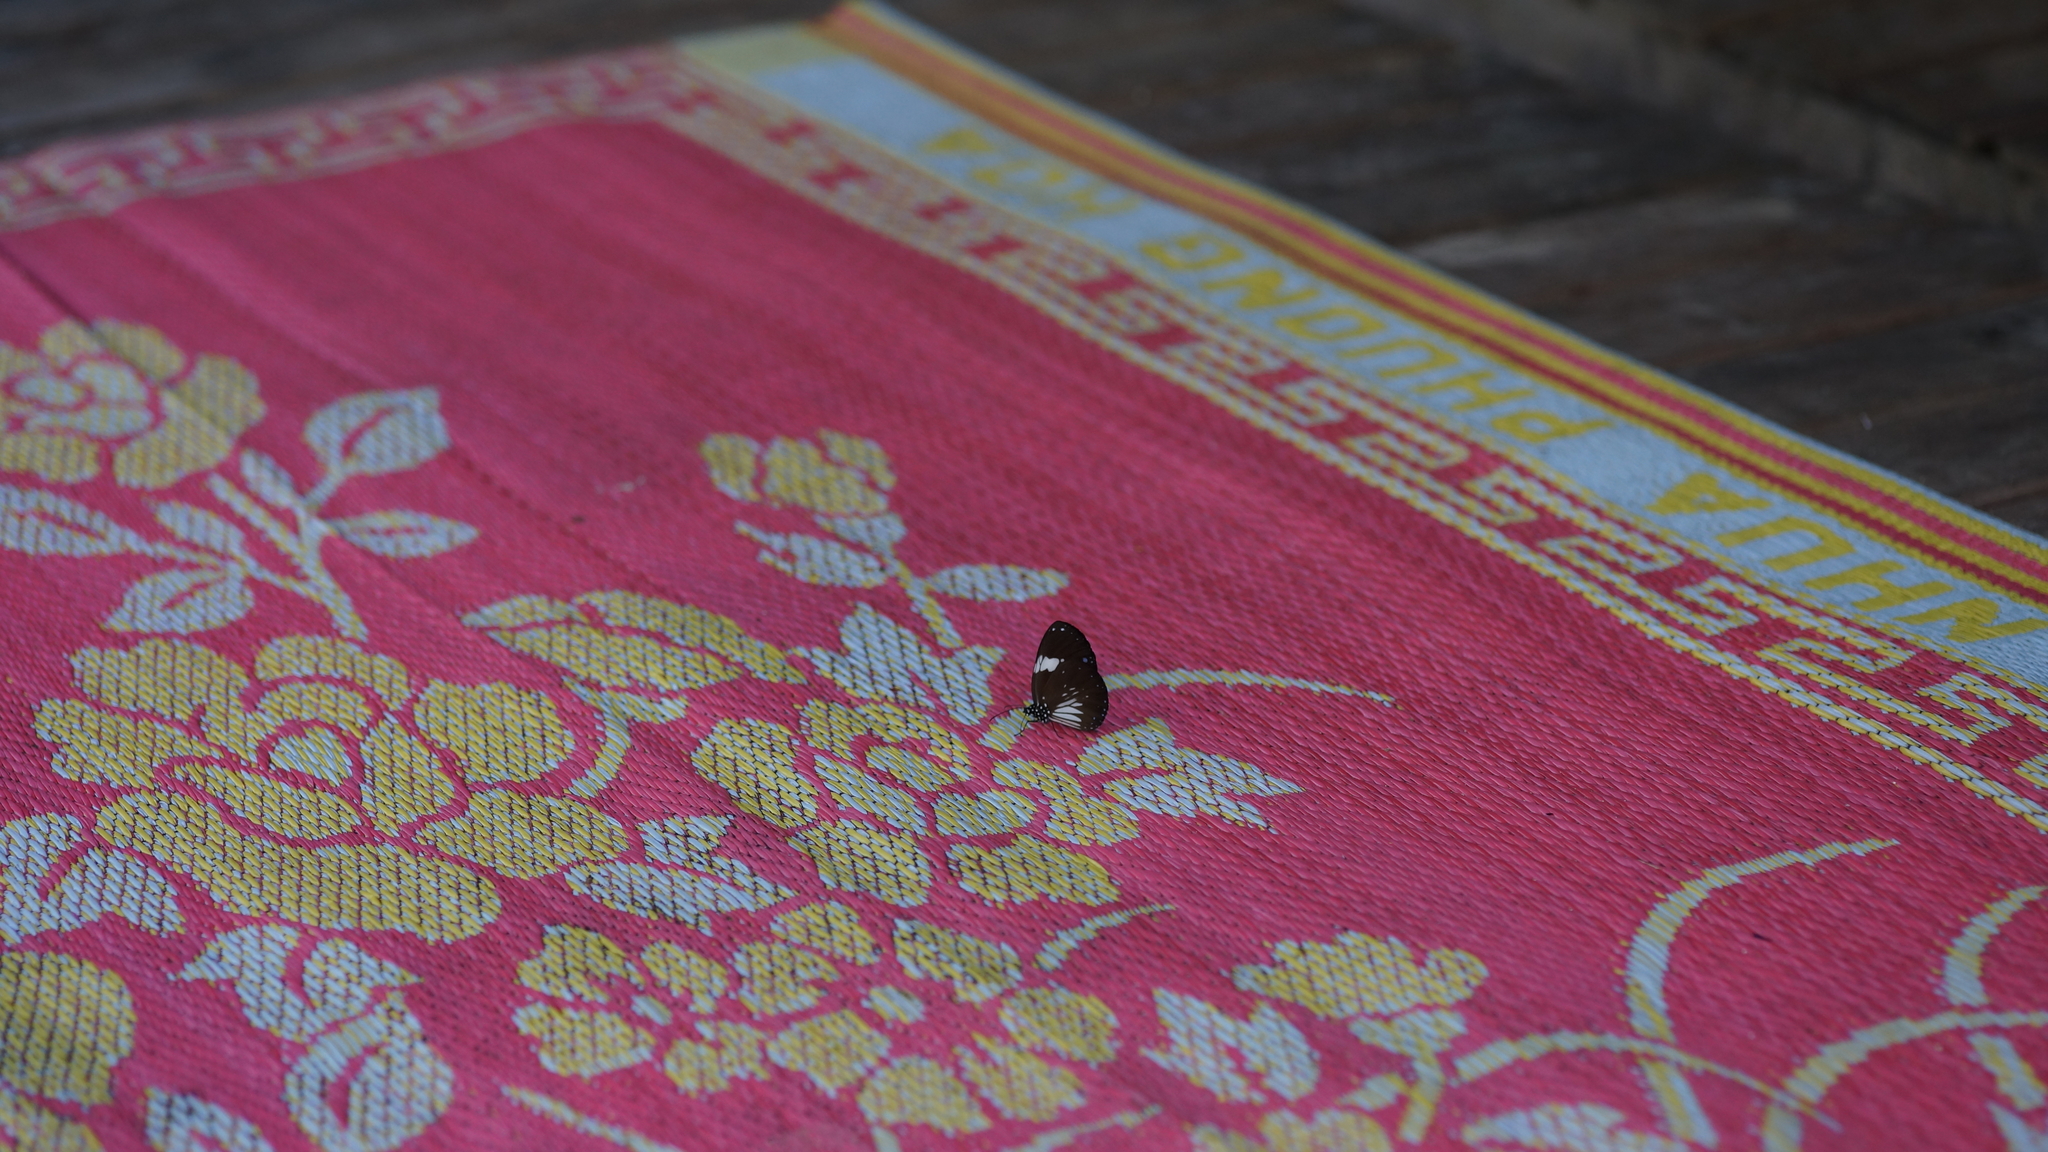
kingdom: Animalia
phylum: Arthropoda
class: Insecta
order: Lepidoptera
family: Nymphalidae
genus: Euploea
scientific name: Euploea radamanthus
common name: Magpie crow butterfly
